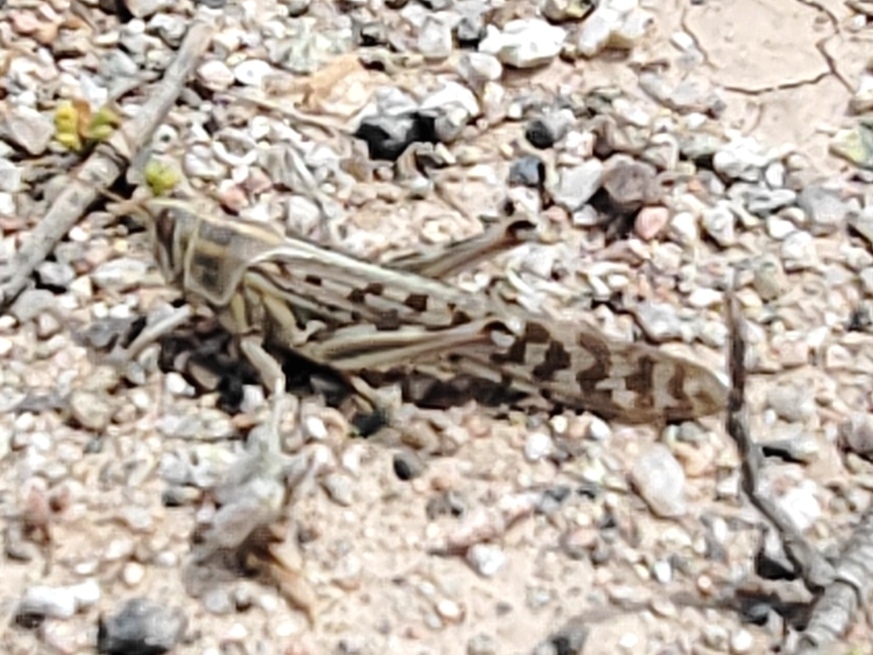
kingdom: Animalia
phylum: Arthropoda
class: Insecta
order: Orthoptera
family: Acrididae
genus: Schistocerca
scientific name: Schistocerca gregaria
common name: Desert locust
